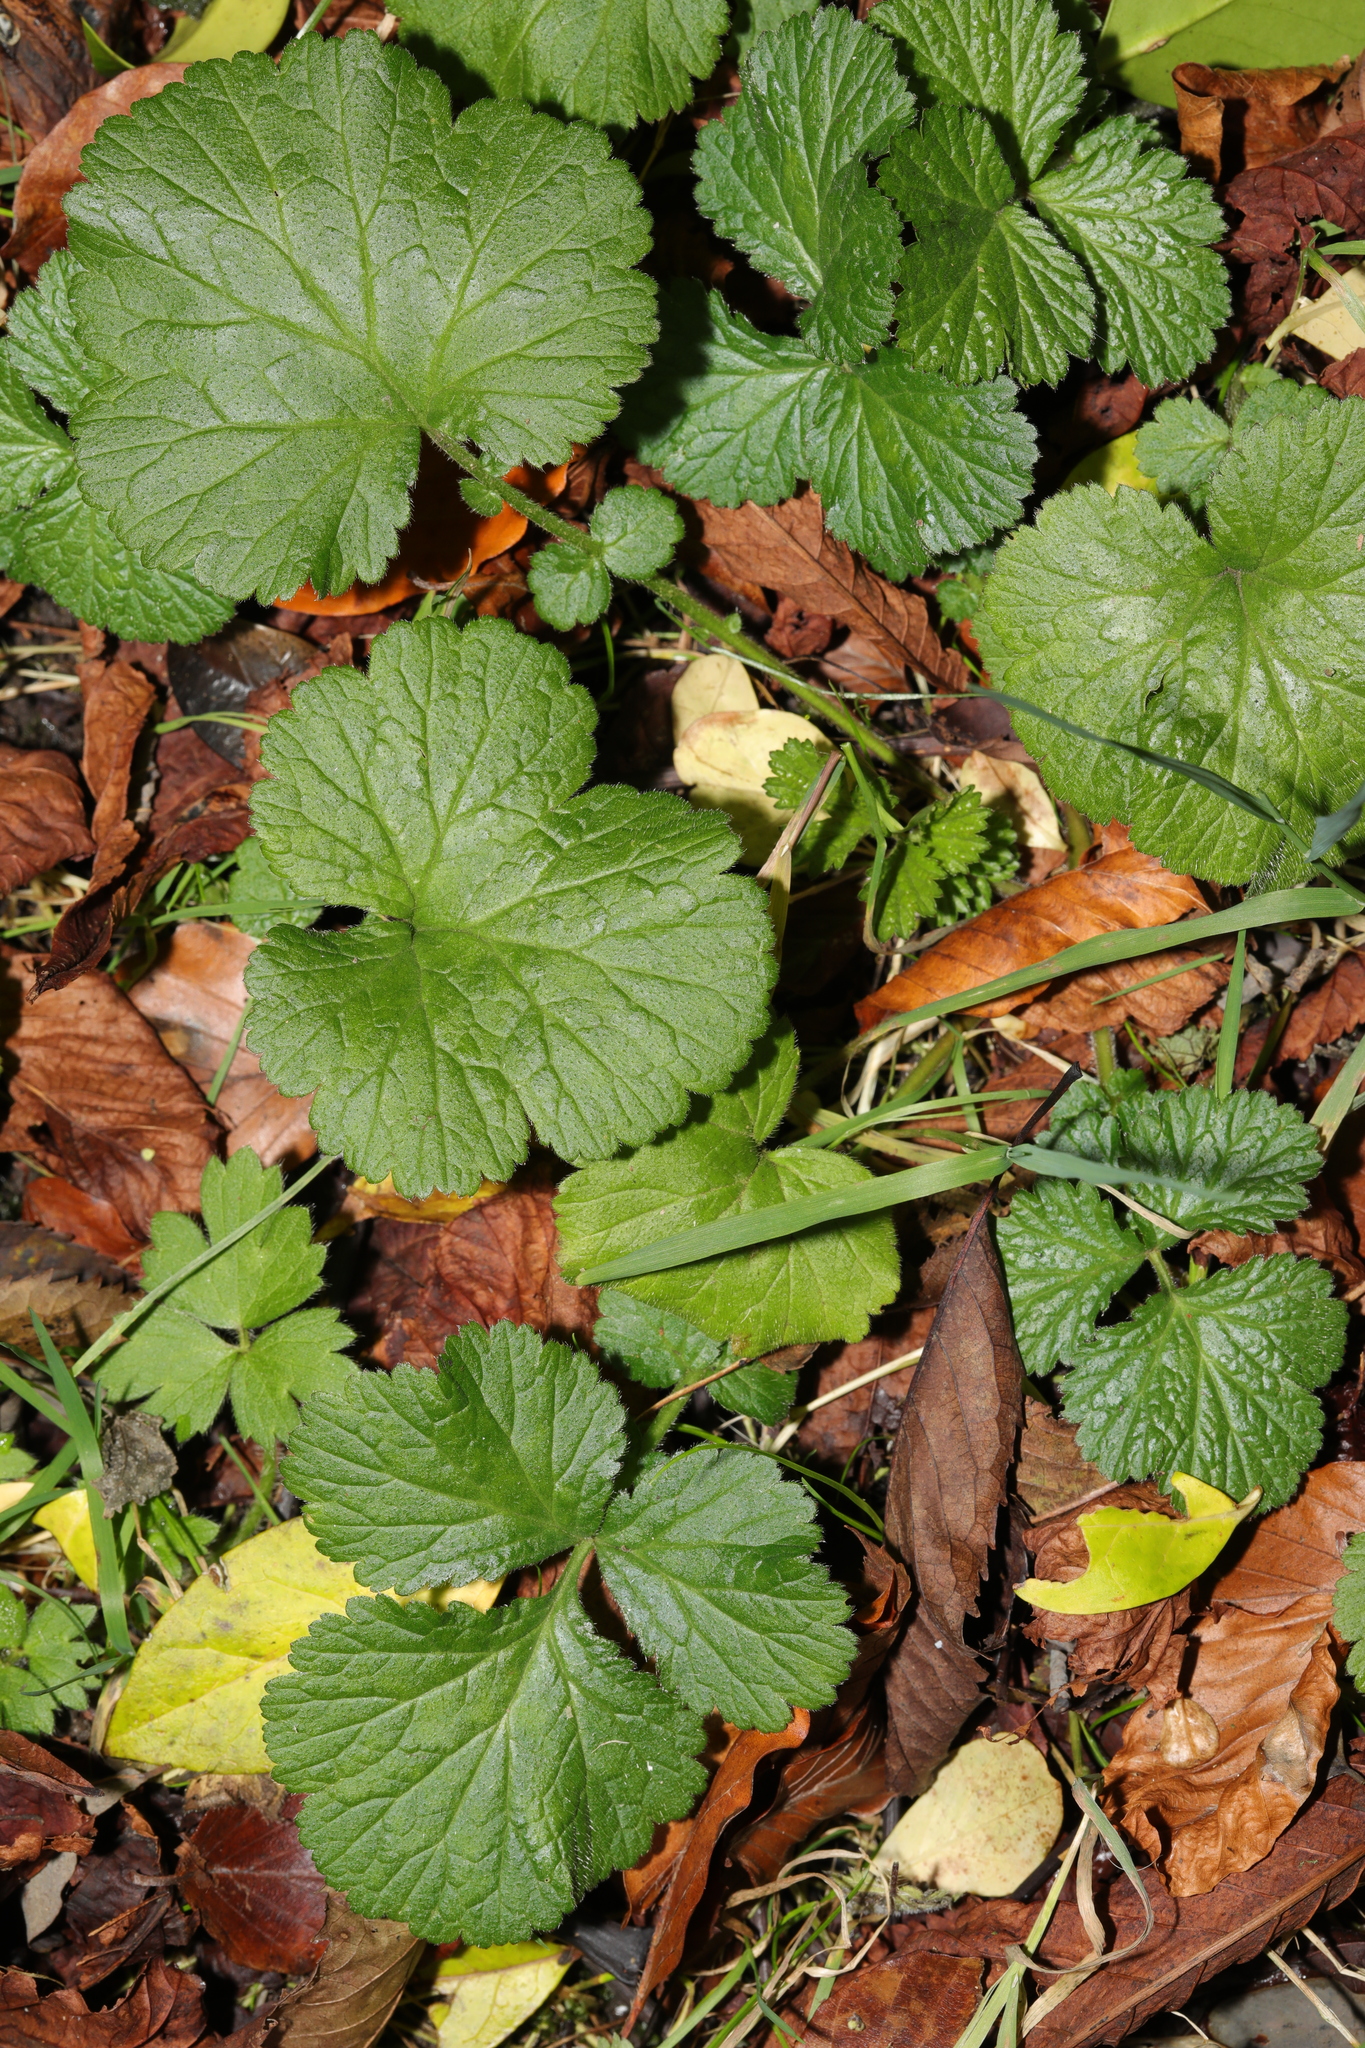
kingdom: Plantae
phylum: Tracheophyta
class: Magnoliopsida
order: Rosales
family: Rosaceae
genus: Geum
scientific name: Geum urbanum
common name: Wood avens
